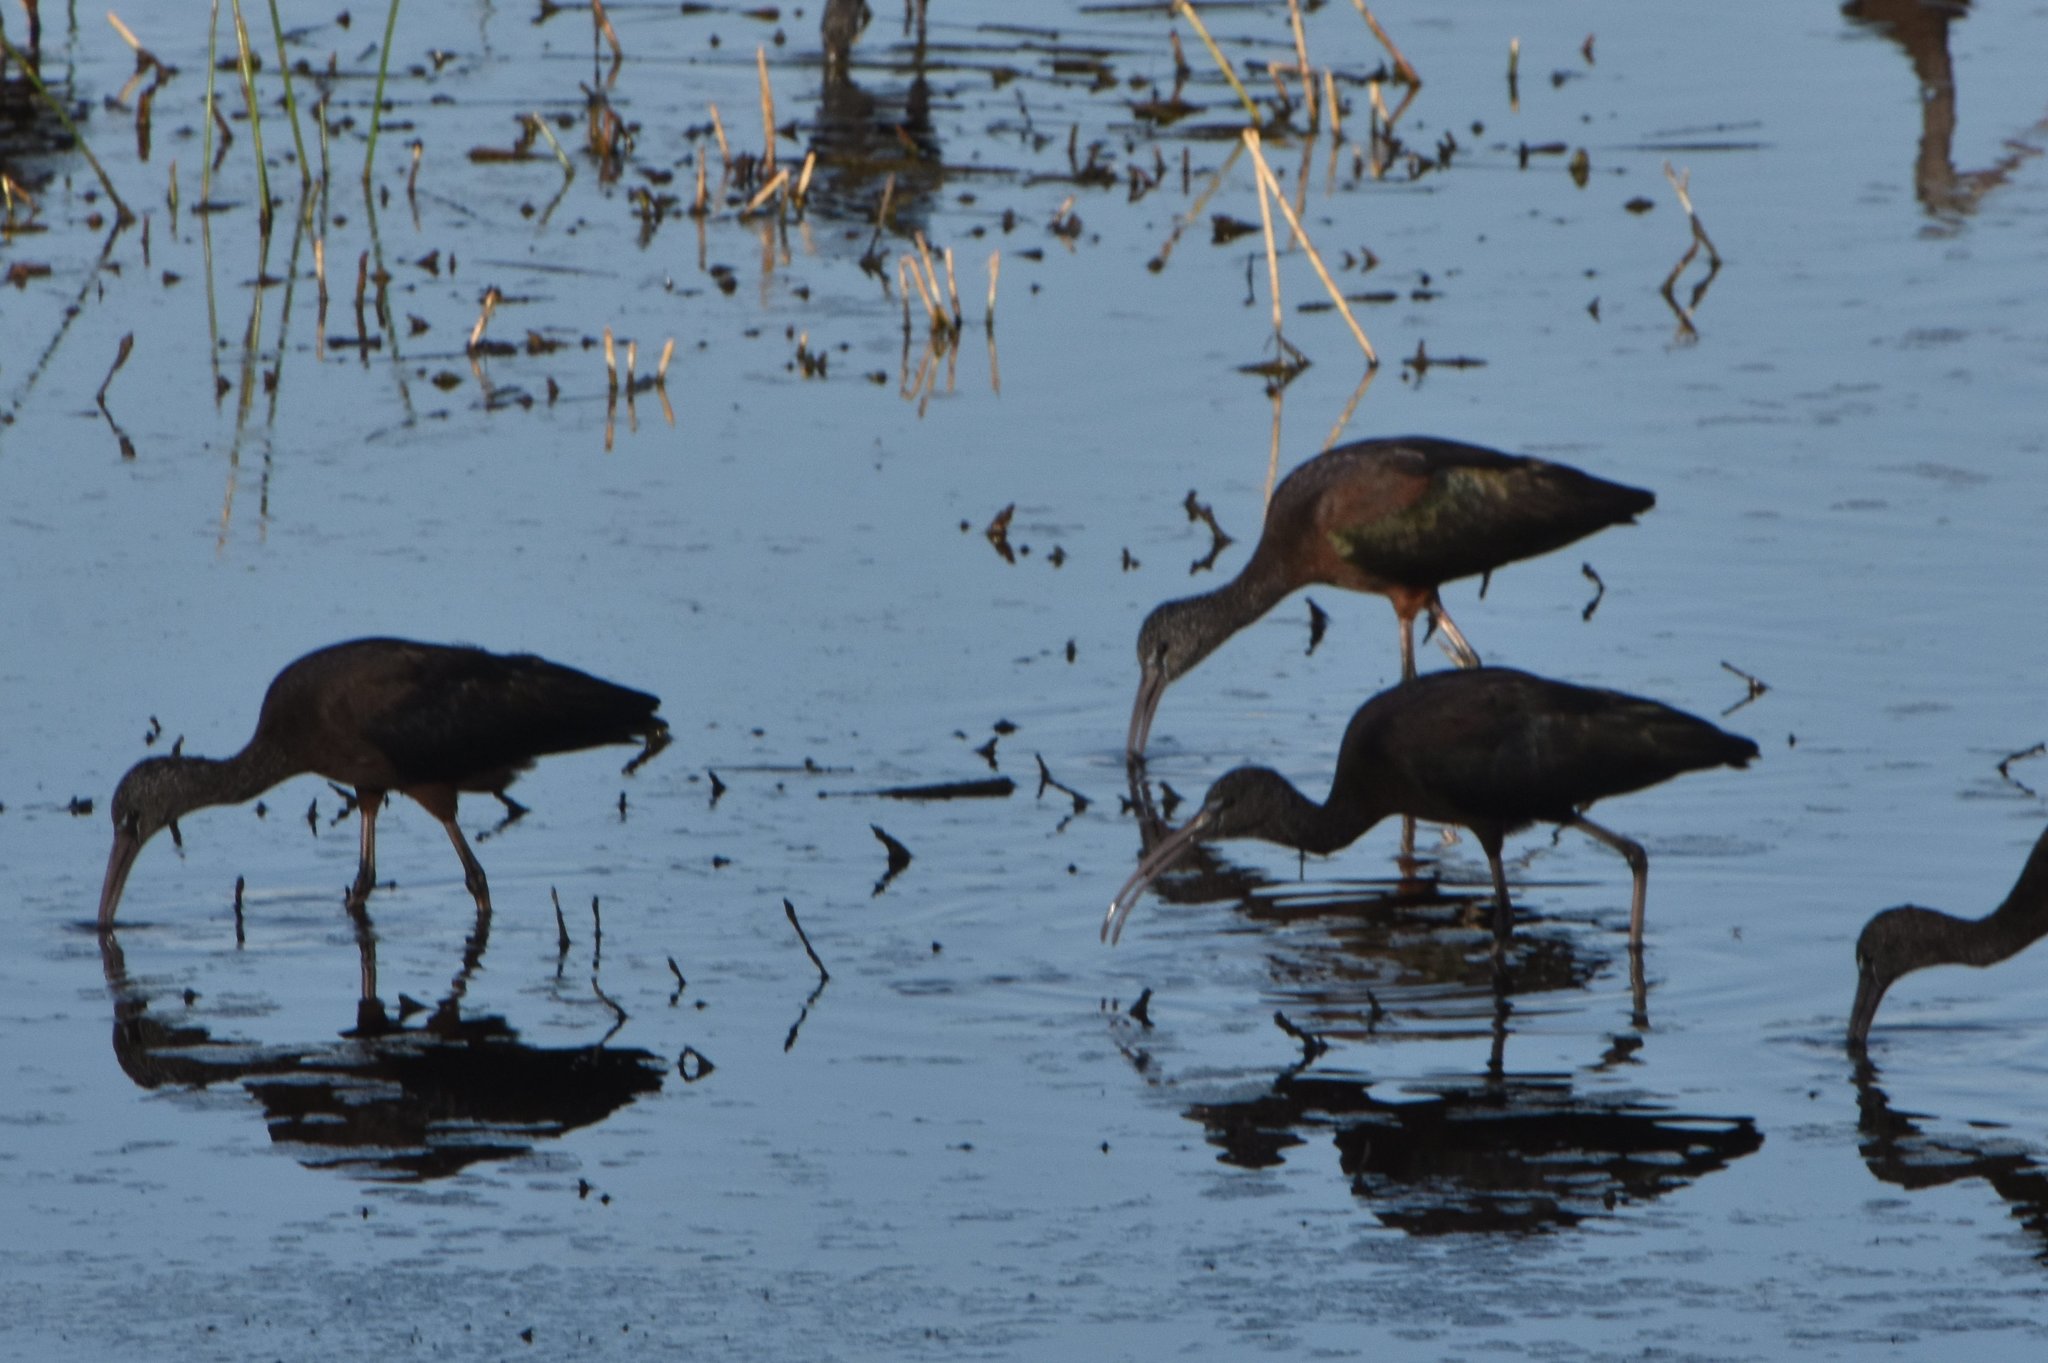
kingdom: Animalia
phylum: Chordata
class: Aves
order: Pelecaniformes
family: Threskiornithidae
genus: Plegadis
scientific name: Plegadis falcinellus
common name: Glossy ibis
